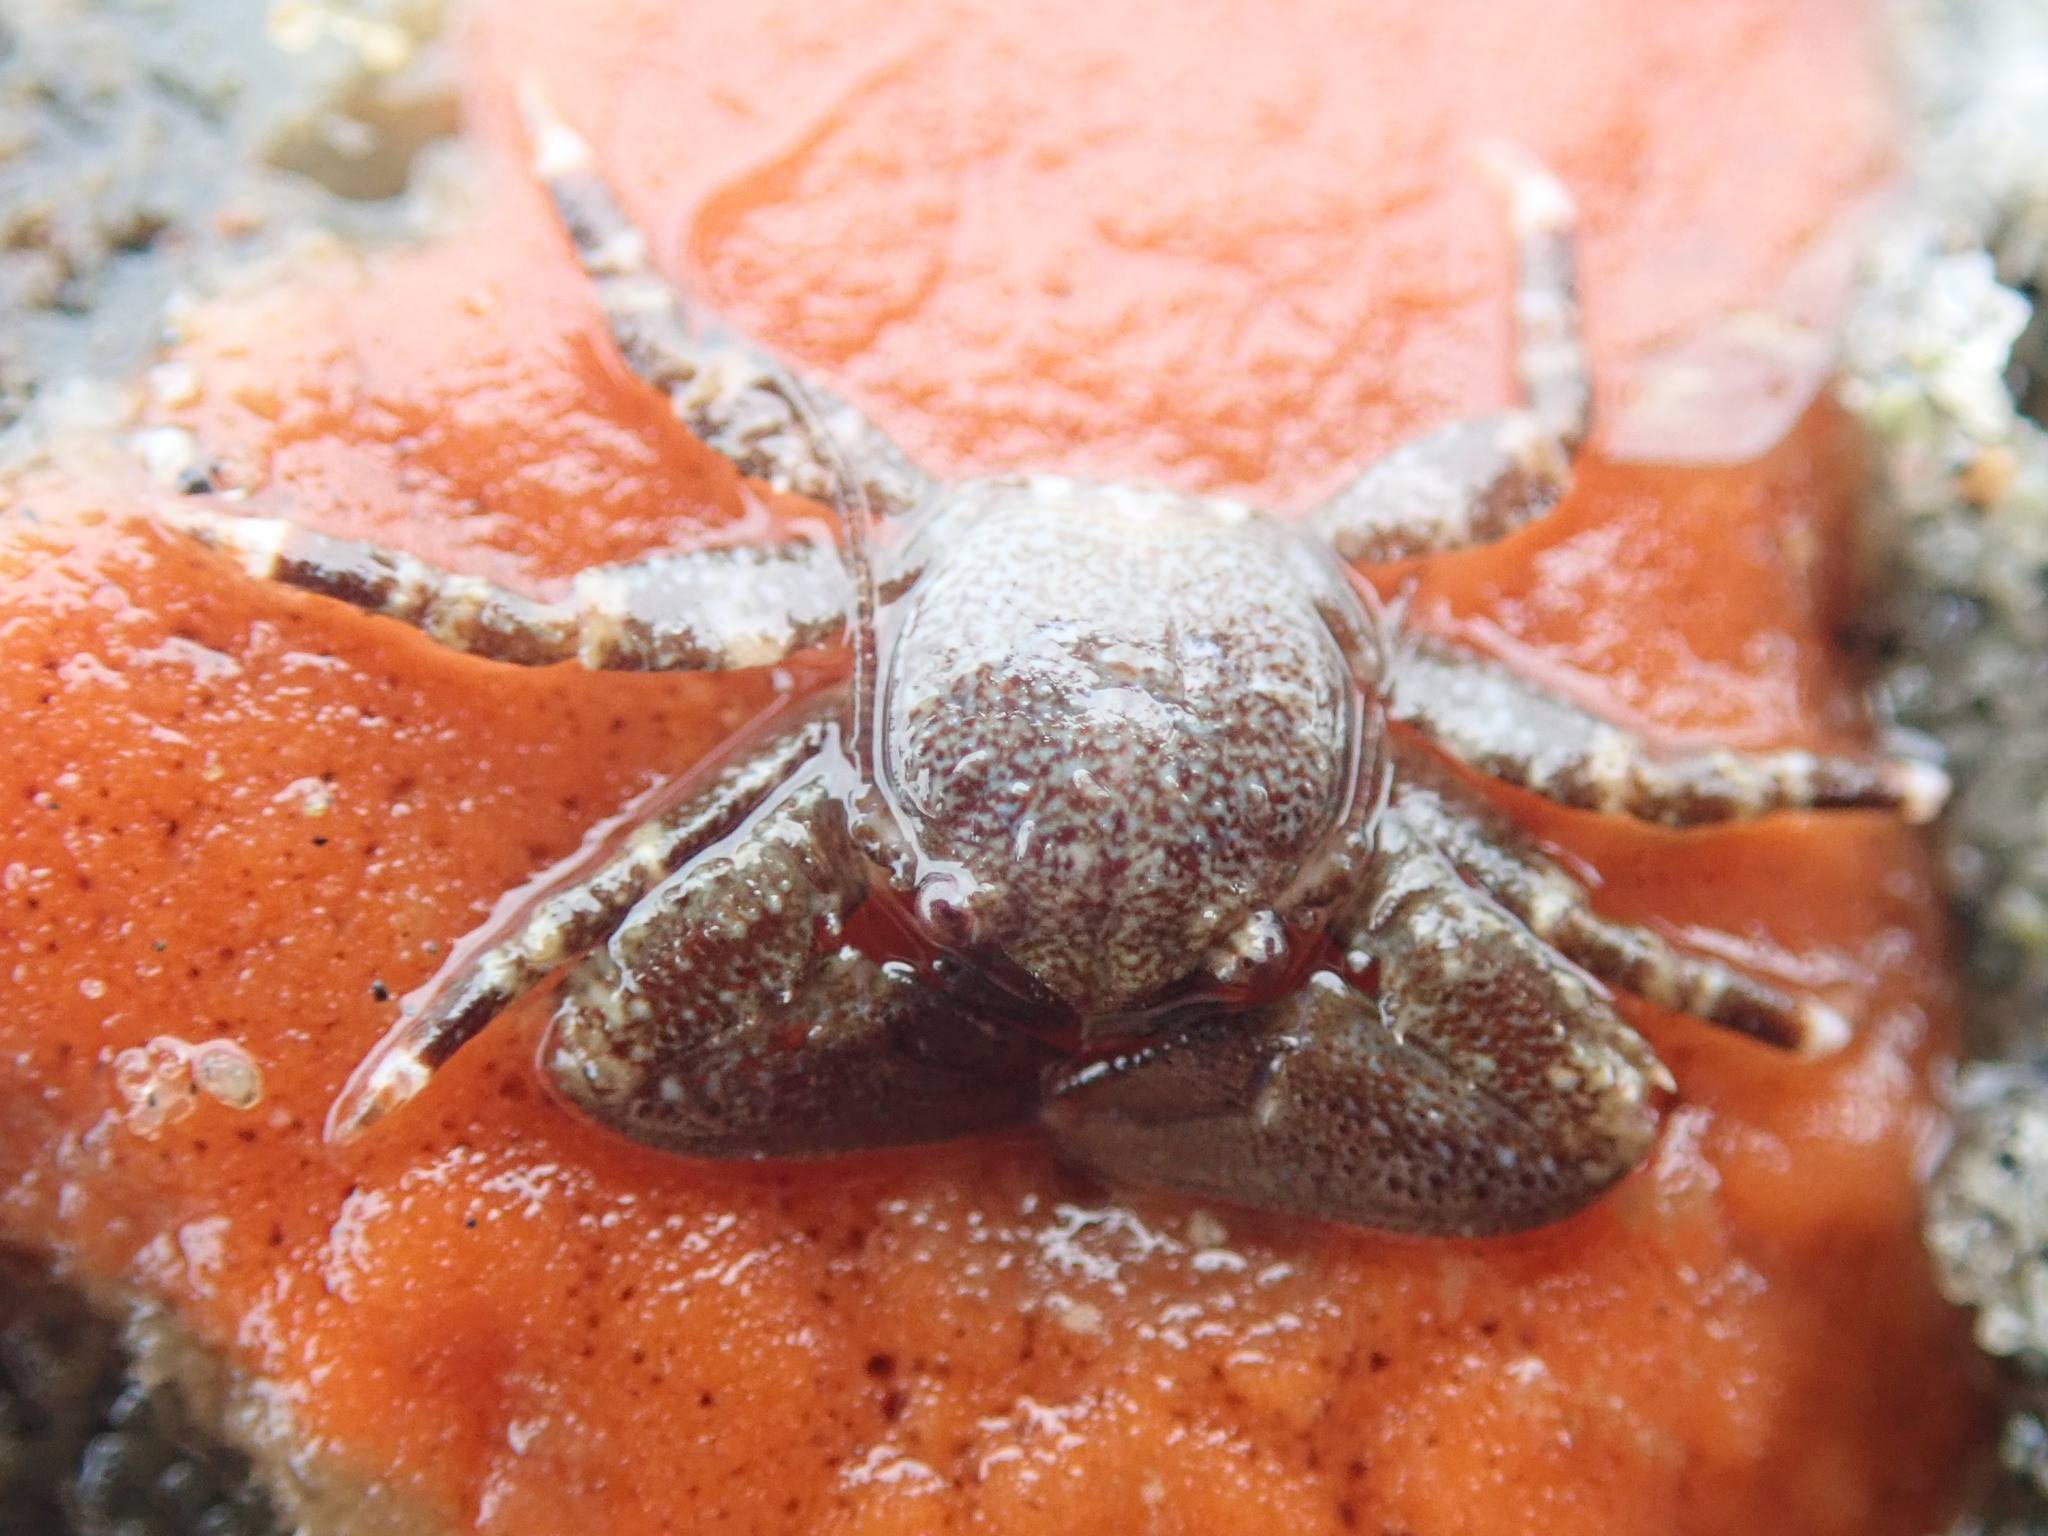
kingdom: Animalia
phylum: Arthropoda
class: Malacostraca
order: Decapoda
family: Porcellanidae
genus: Petrolisthes
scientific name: Petrolisthes eriomerus
